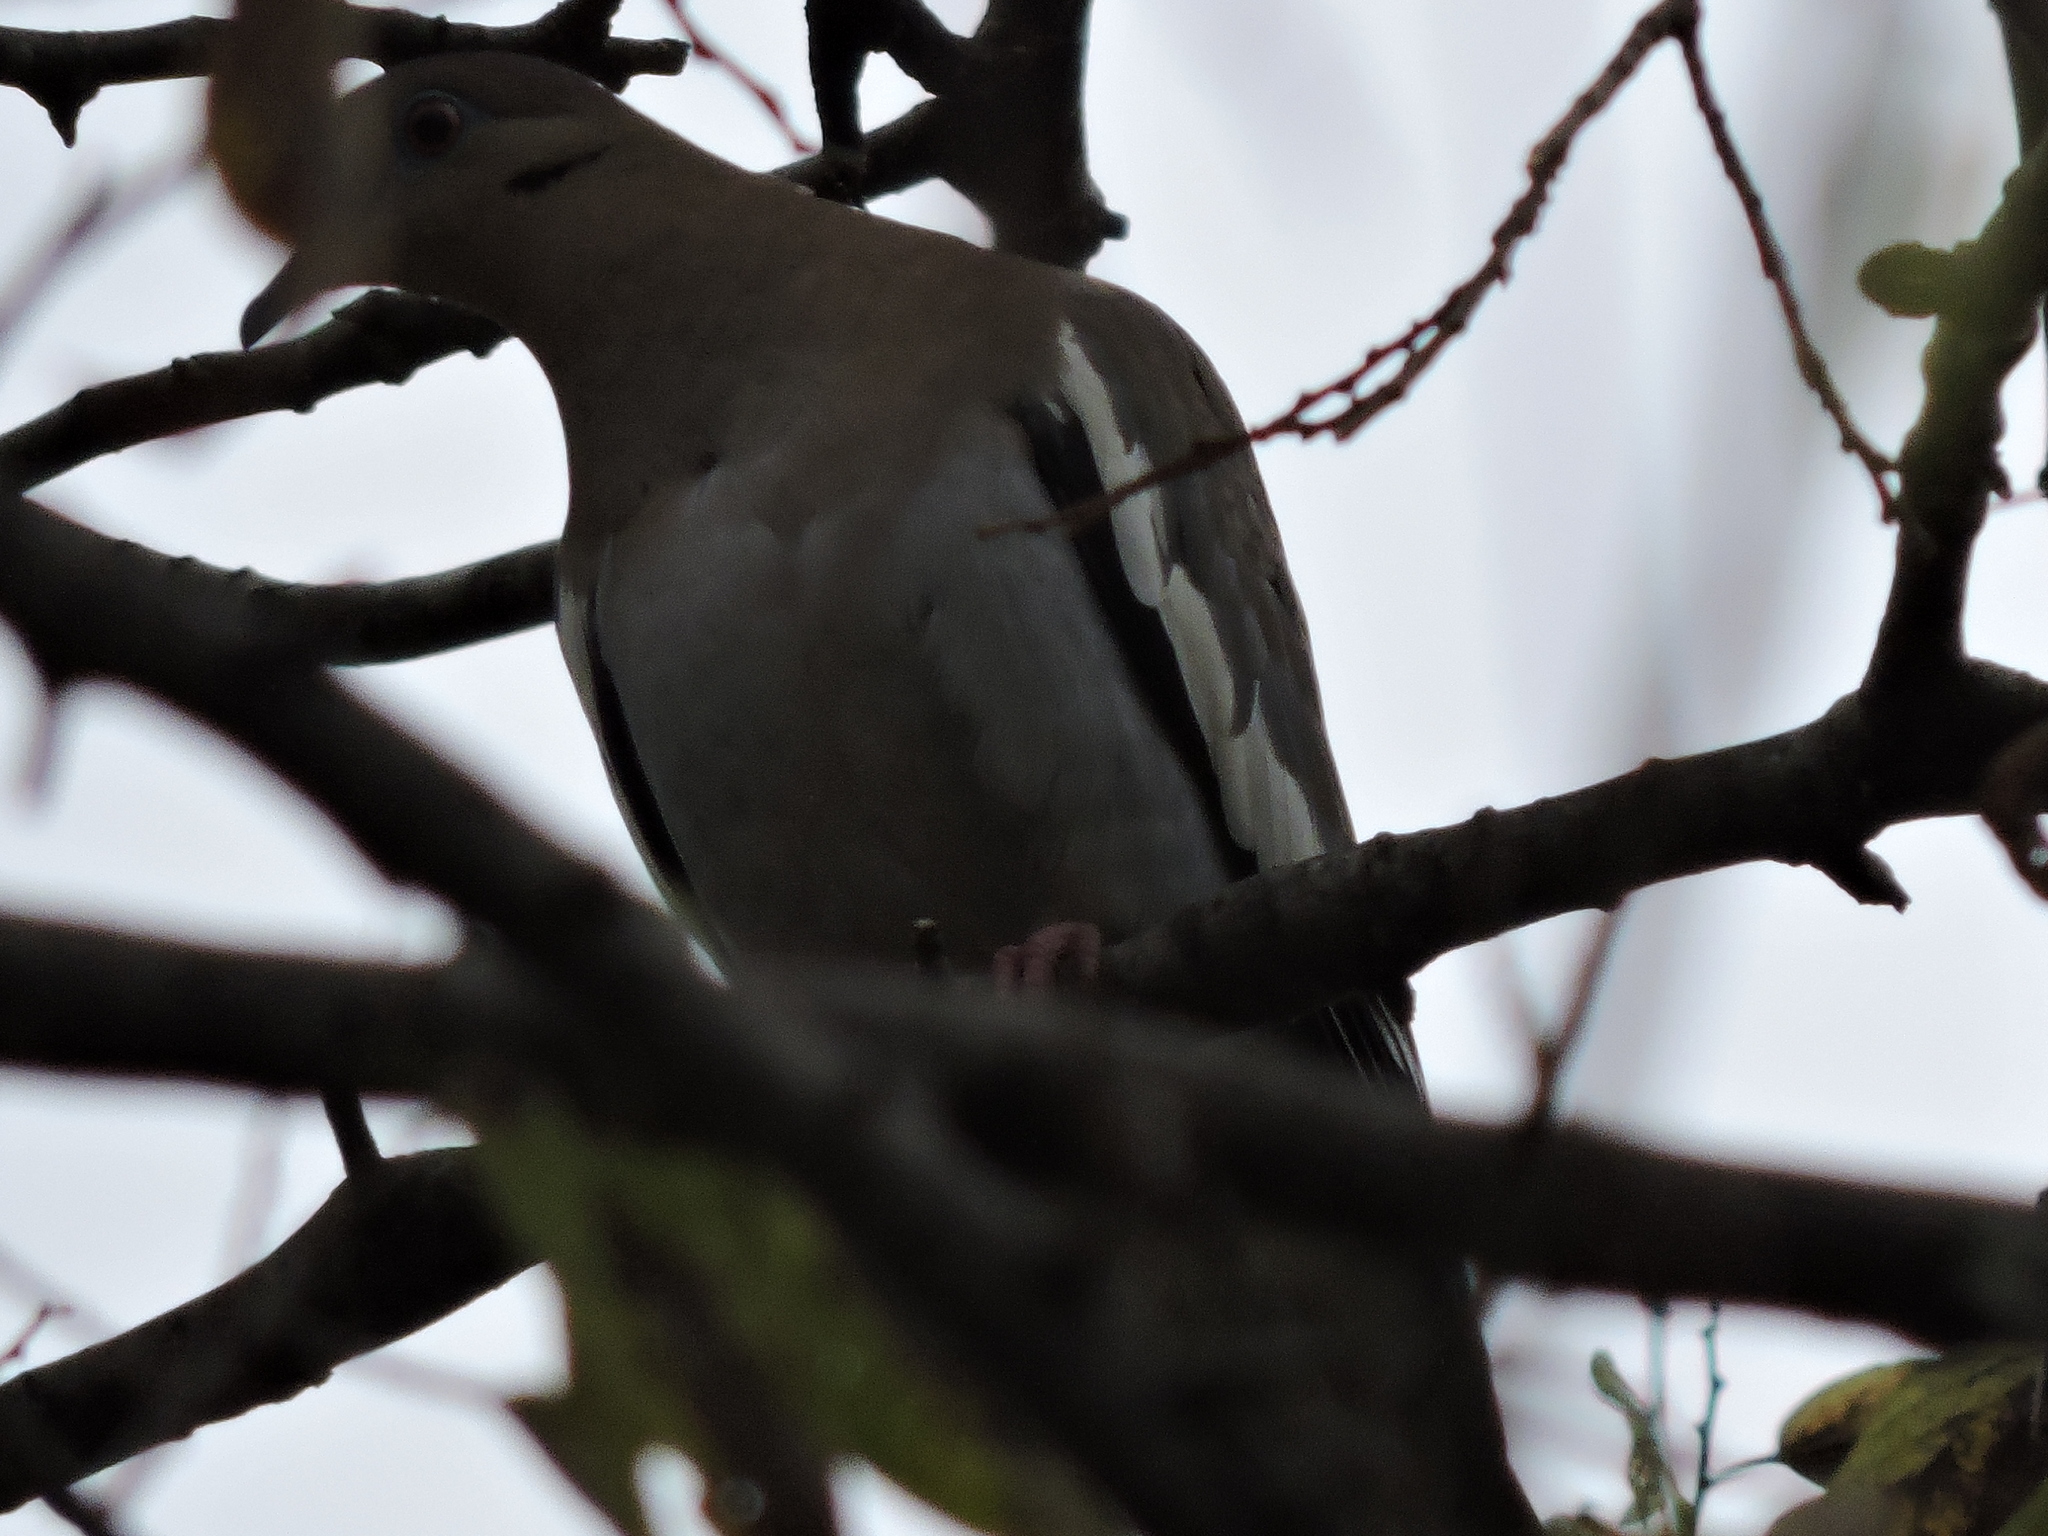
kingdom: Animalia
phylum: Chordata
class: Aves
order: Columbiformes
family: Columbidae
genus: Zenaida
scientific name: Zenaida asiatica
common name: White-winged dove
